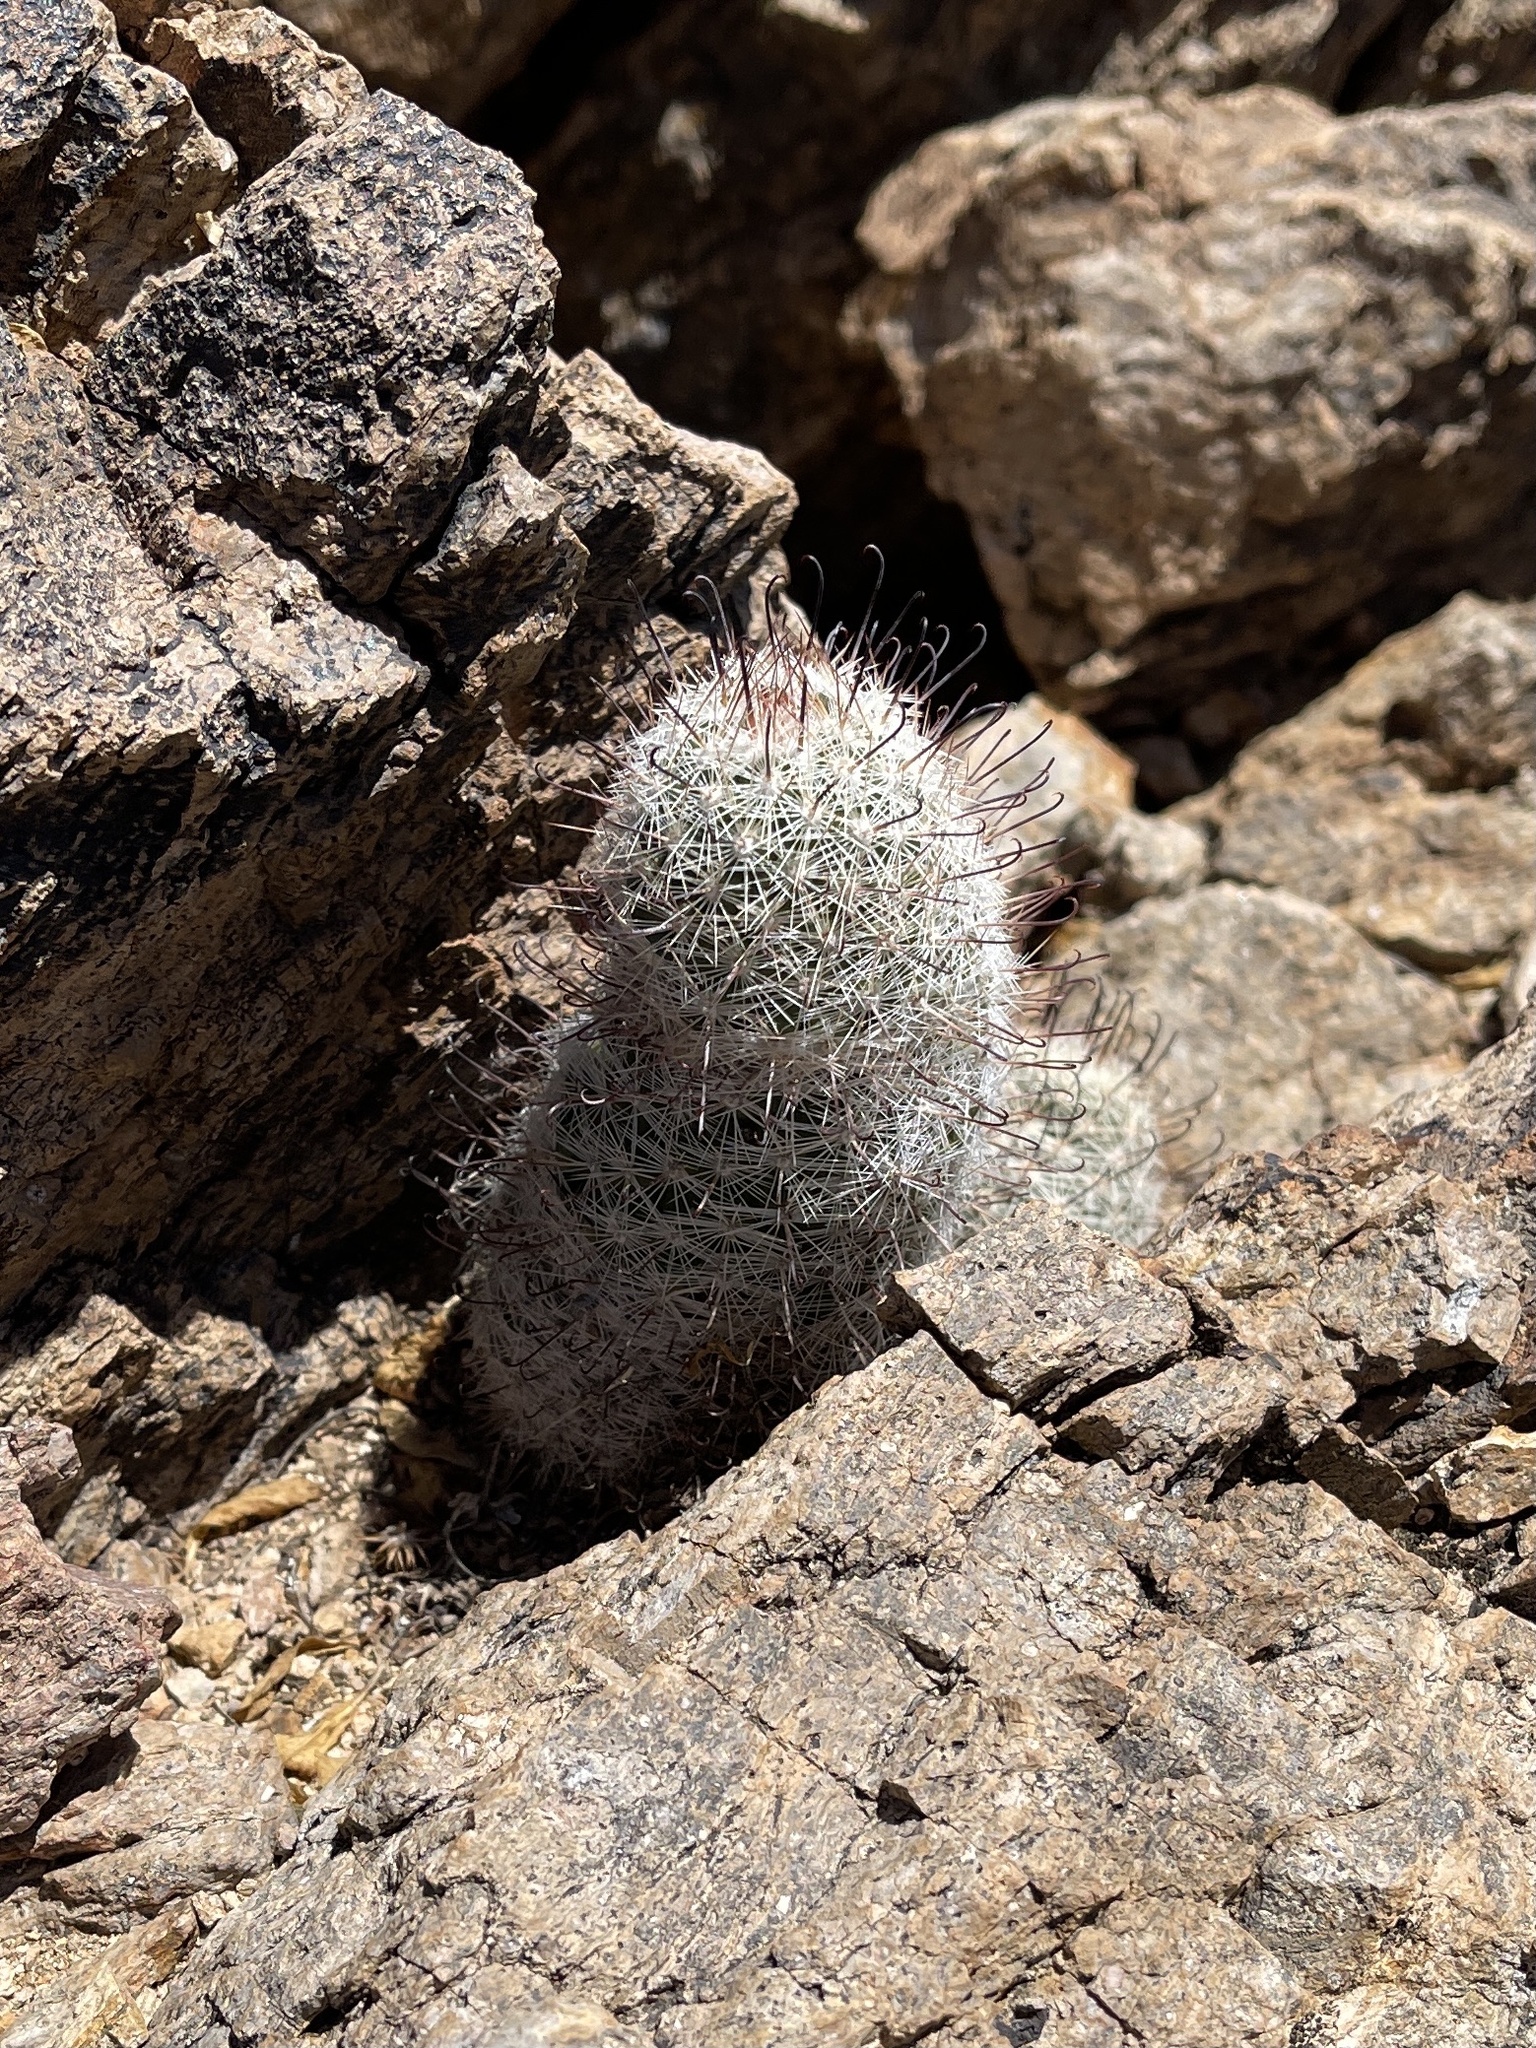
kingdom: Plantae
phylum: Tracheophyta
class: Magnoliopsida
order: Caryophyllales
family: Cactaceae
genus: Cochemiea
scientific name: Cochemiea grahamii
